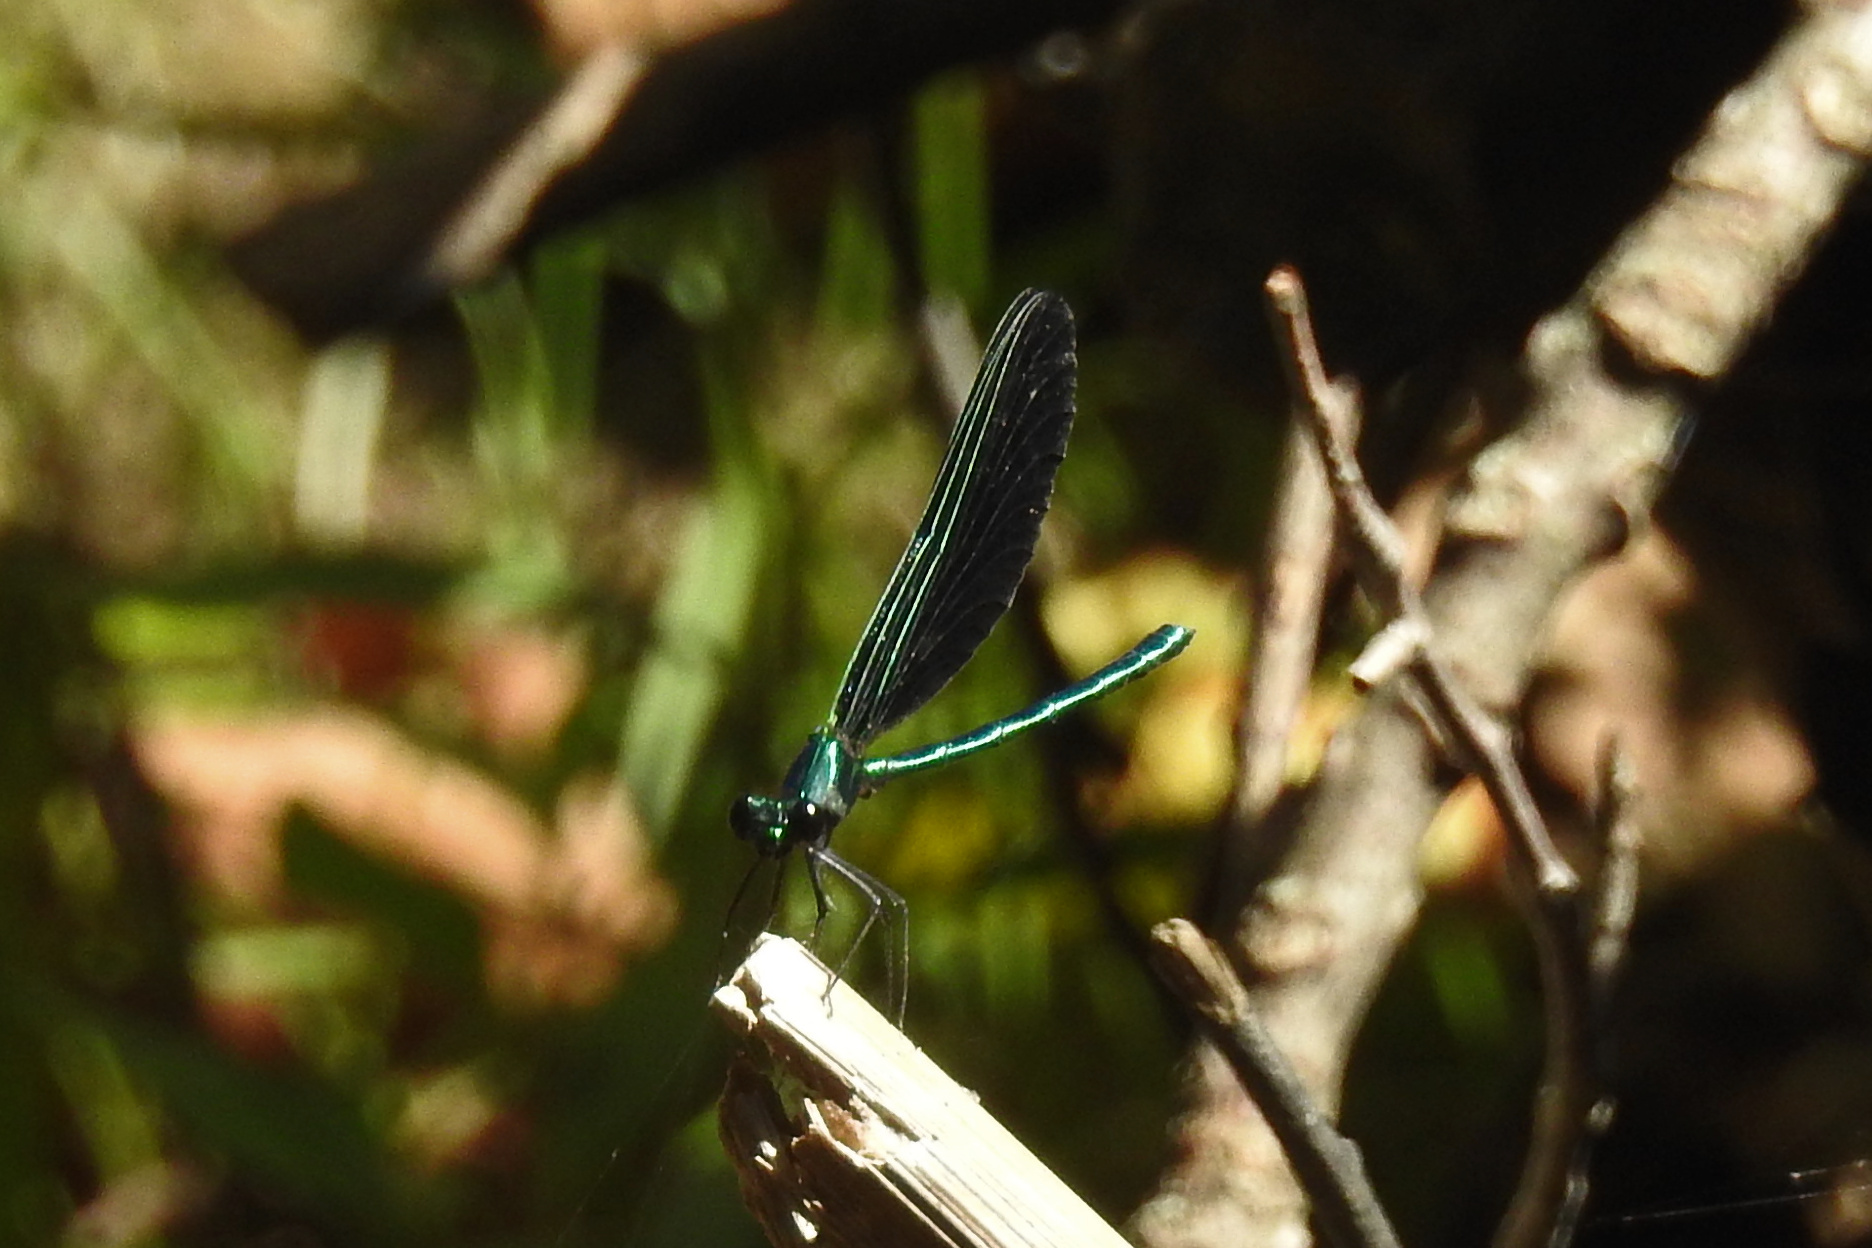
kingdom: Animalia
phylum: Arthropoda
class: Insecta
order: Odonata
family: Calopterygidae
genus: Calopteryx
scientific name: Calopteryx maculata
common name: Ebony jewelwing
